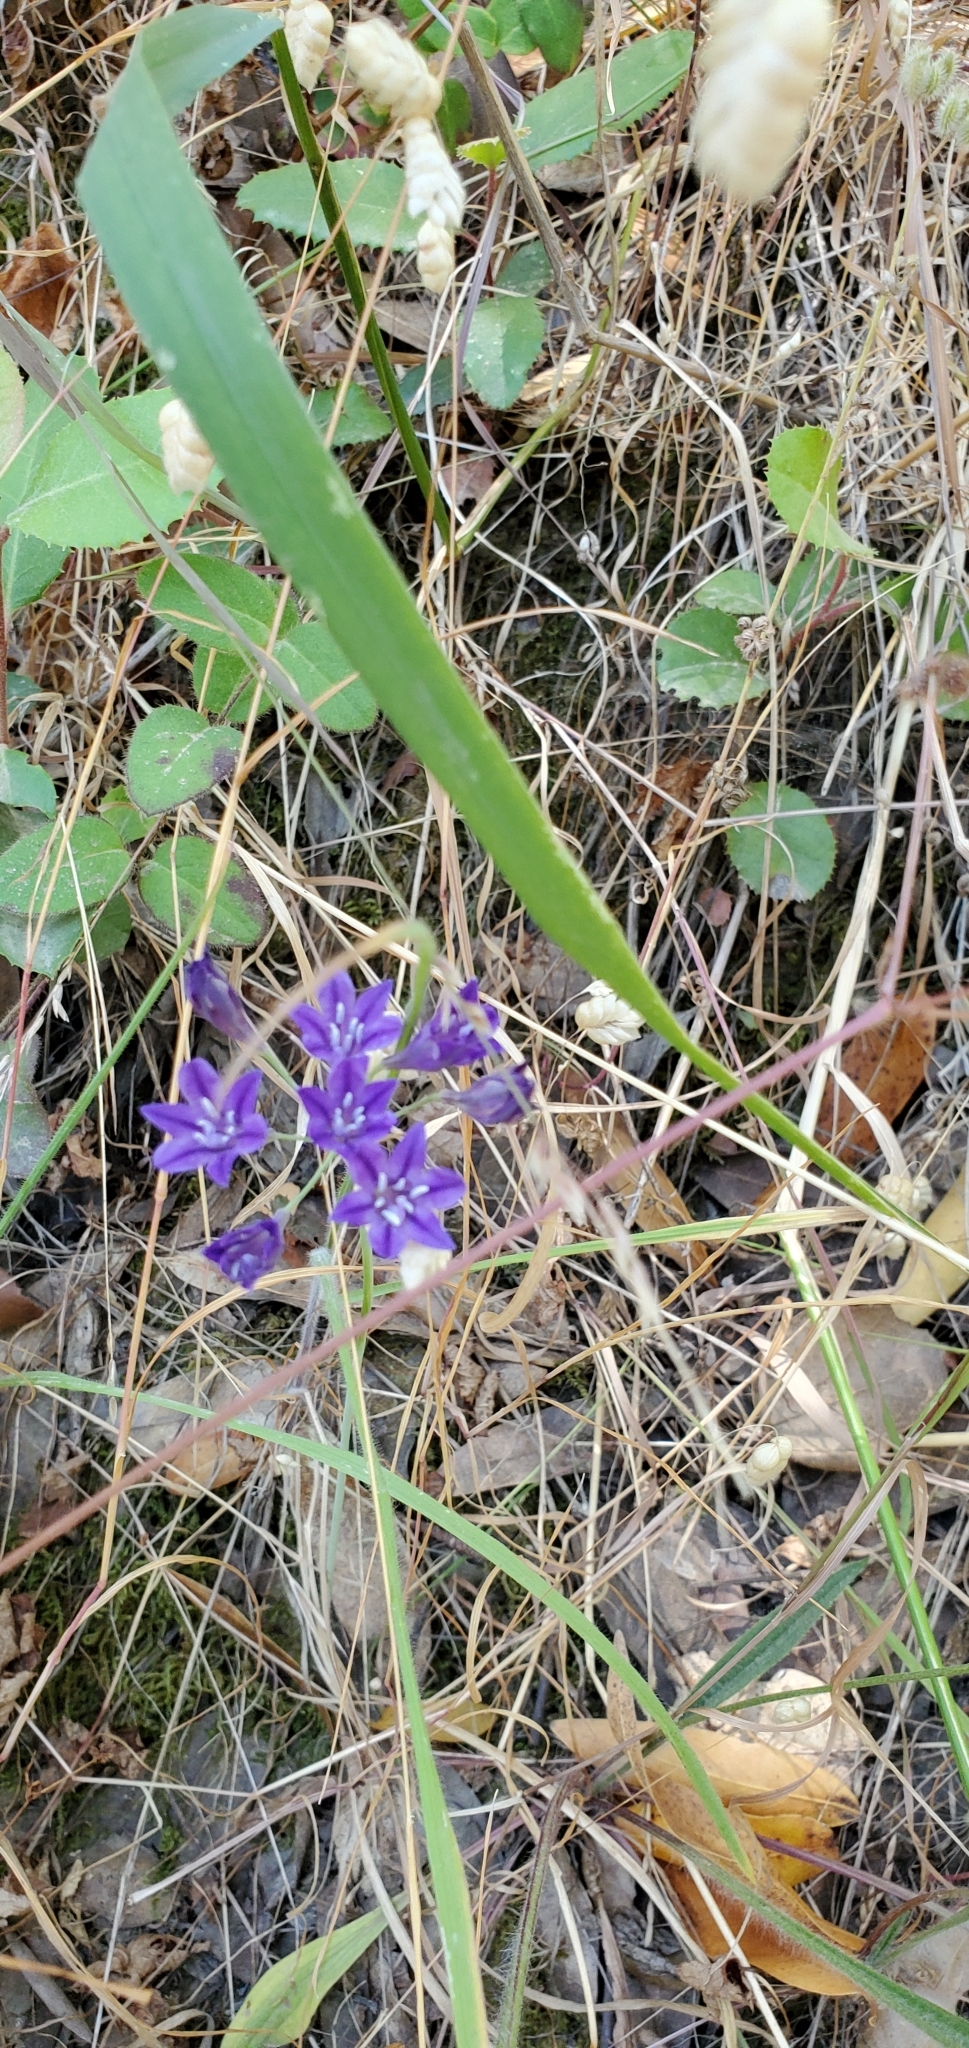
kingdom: Plantae
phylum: Tracheophyta
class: Liliopsida
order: Asparagales
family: Asparagaceae
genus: Triteleia
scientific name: Triteleia laxa
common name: Triplet-lily
